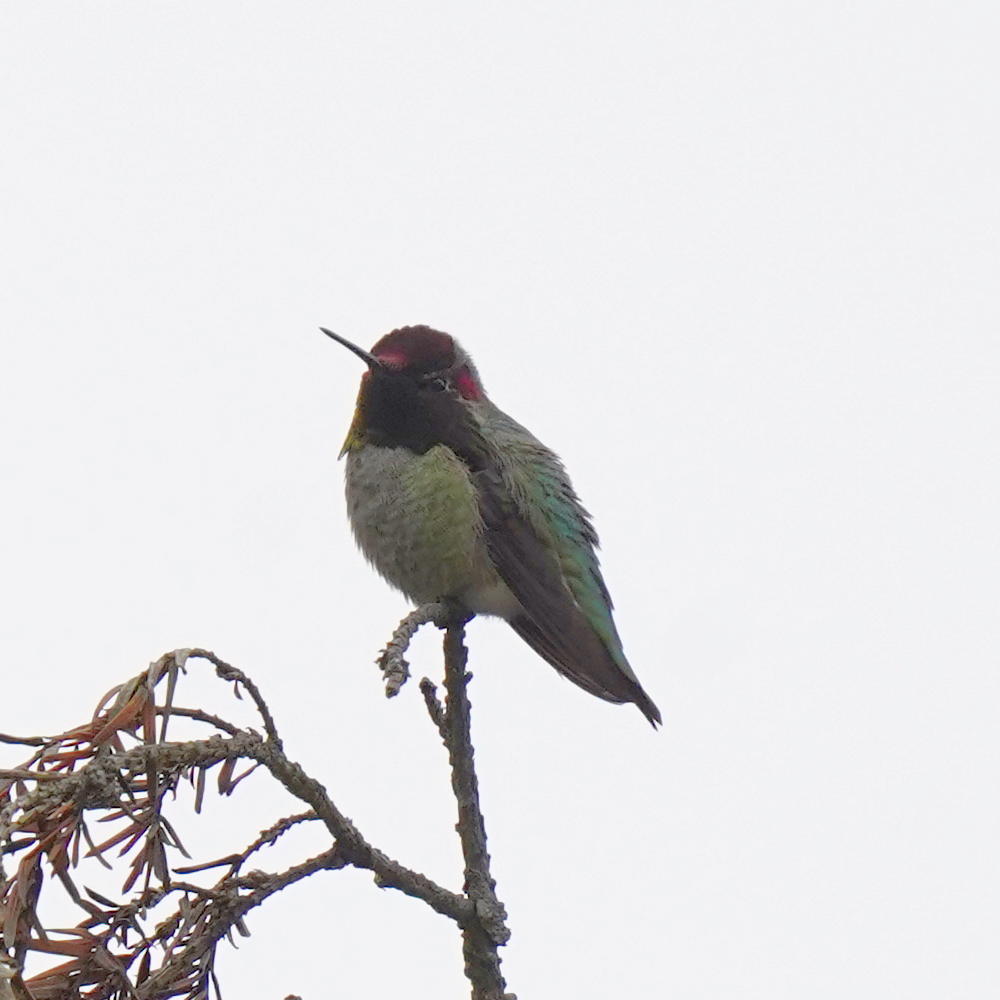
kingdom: Animalia
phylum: Chordata
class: Aves
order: Apodiformes
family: Trochilidae
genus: Calypte
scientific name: Calypte anna
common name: Anna's hummingbird
